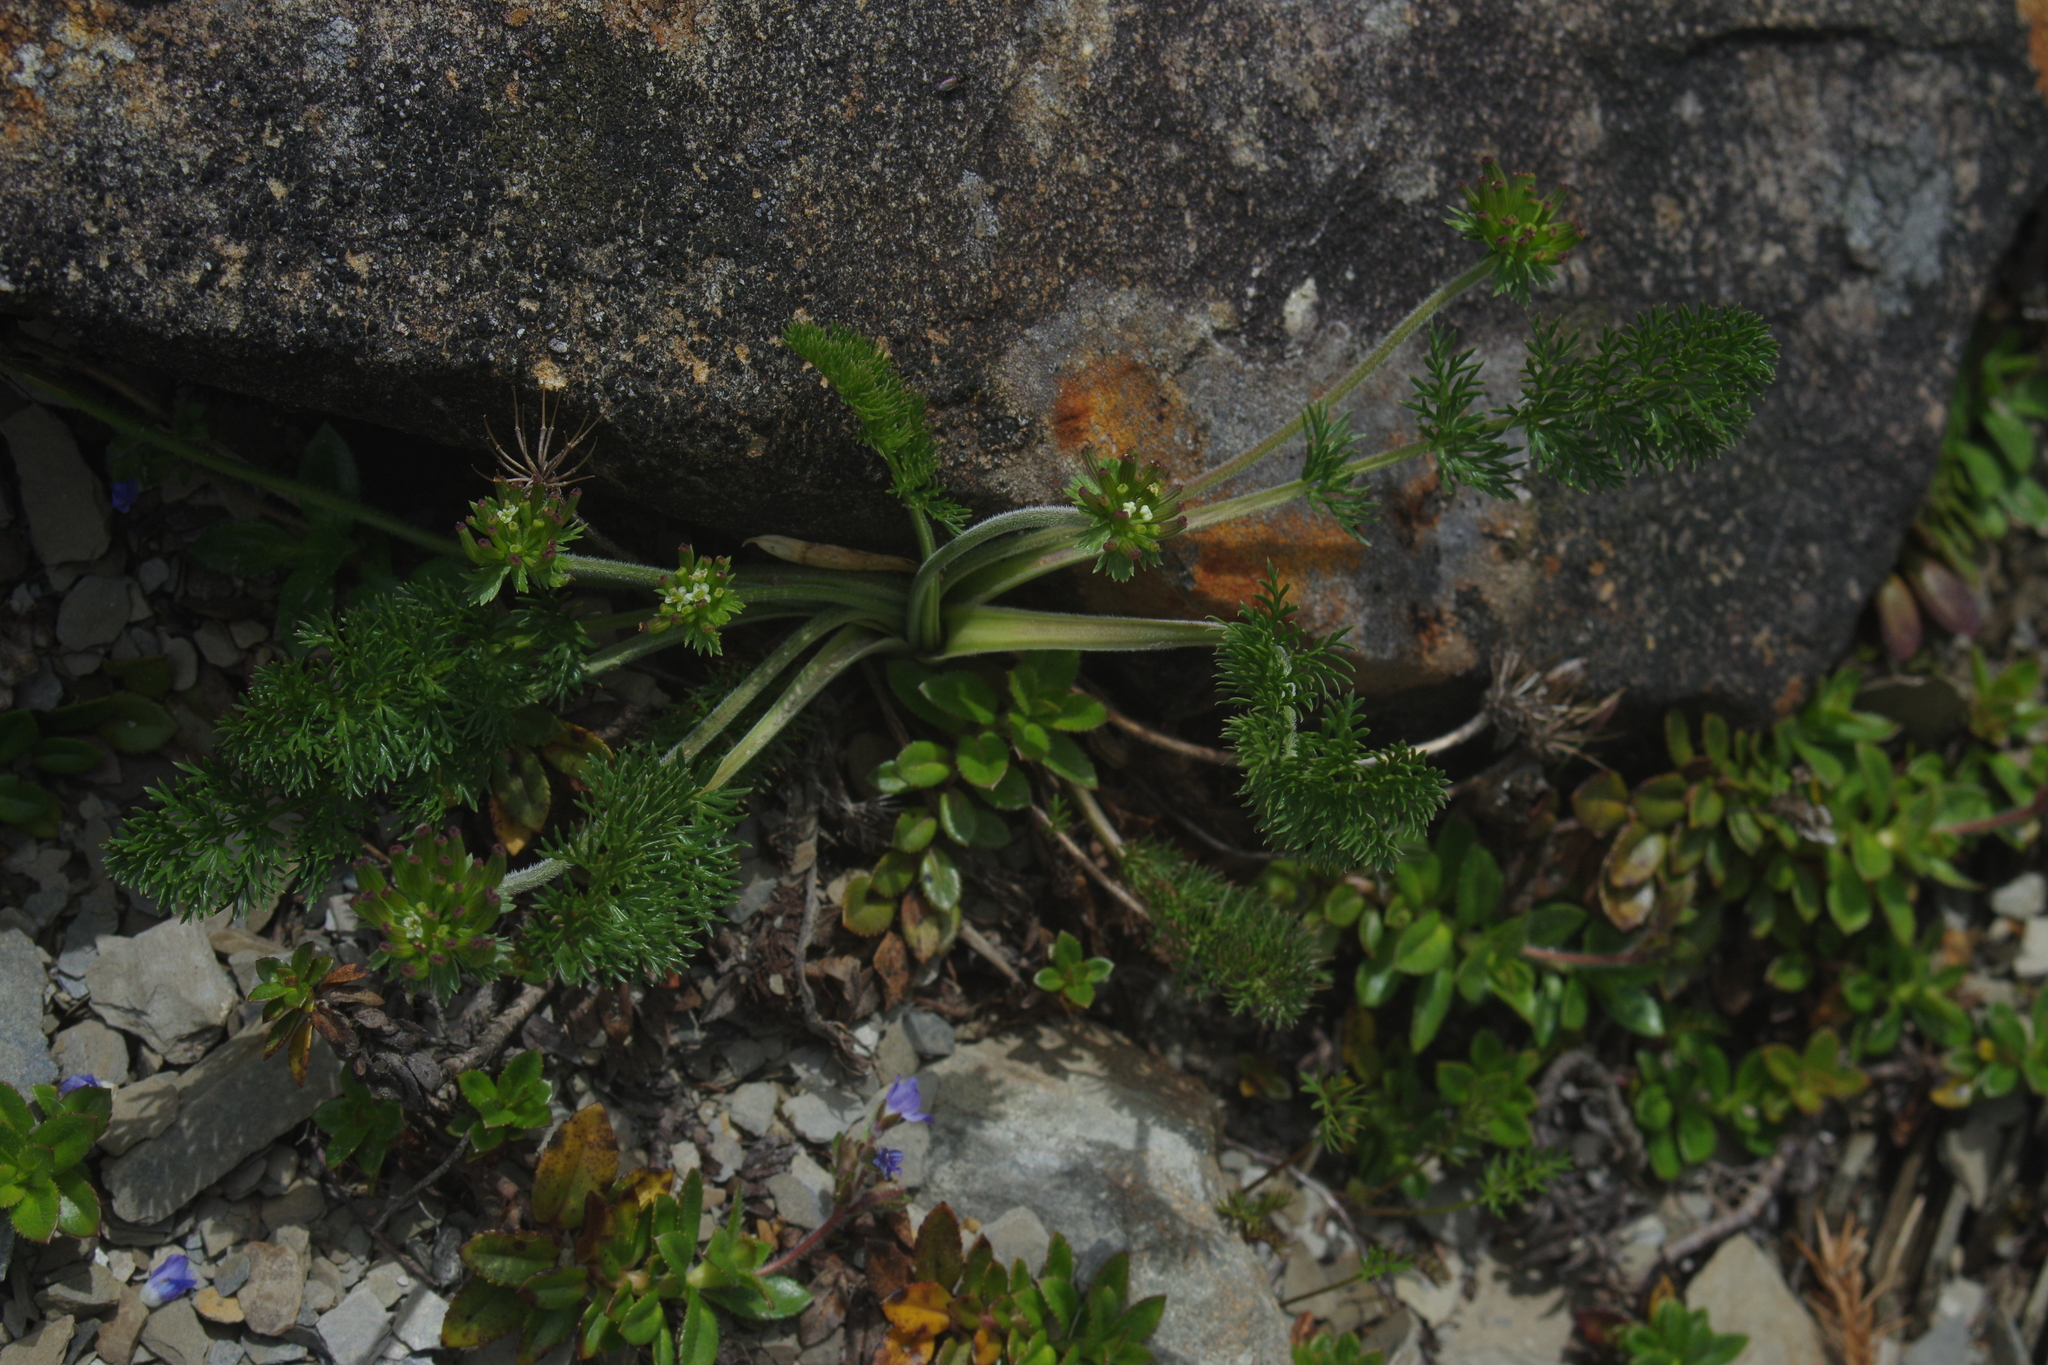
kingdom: Plantae
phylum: Tracheophyta
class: Magnoliopsida
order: Apiales
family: Apiaceae
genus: Chaerophyllum
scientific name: Chaerophyllum nanhuense
